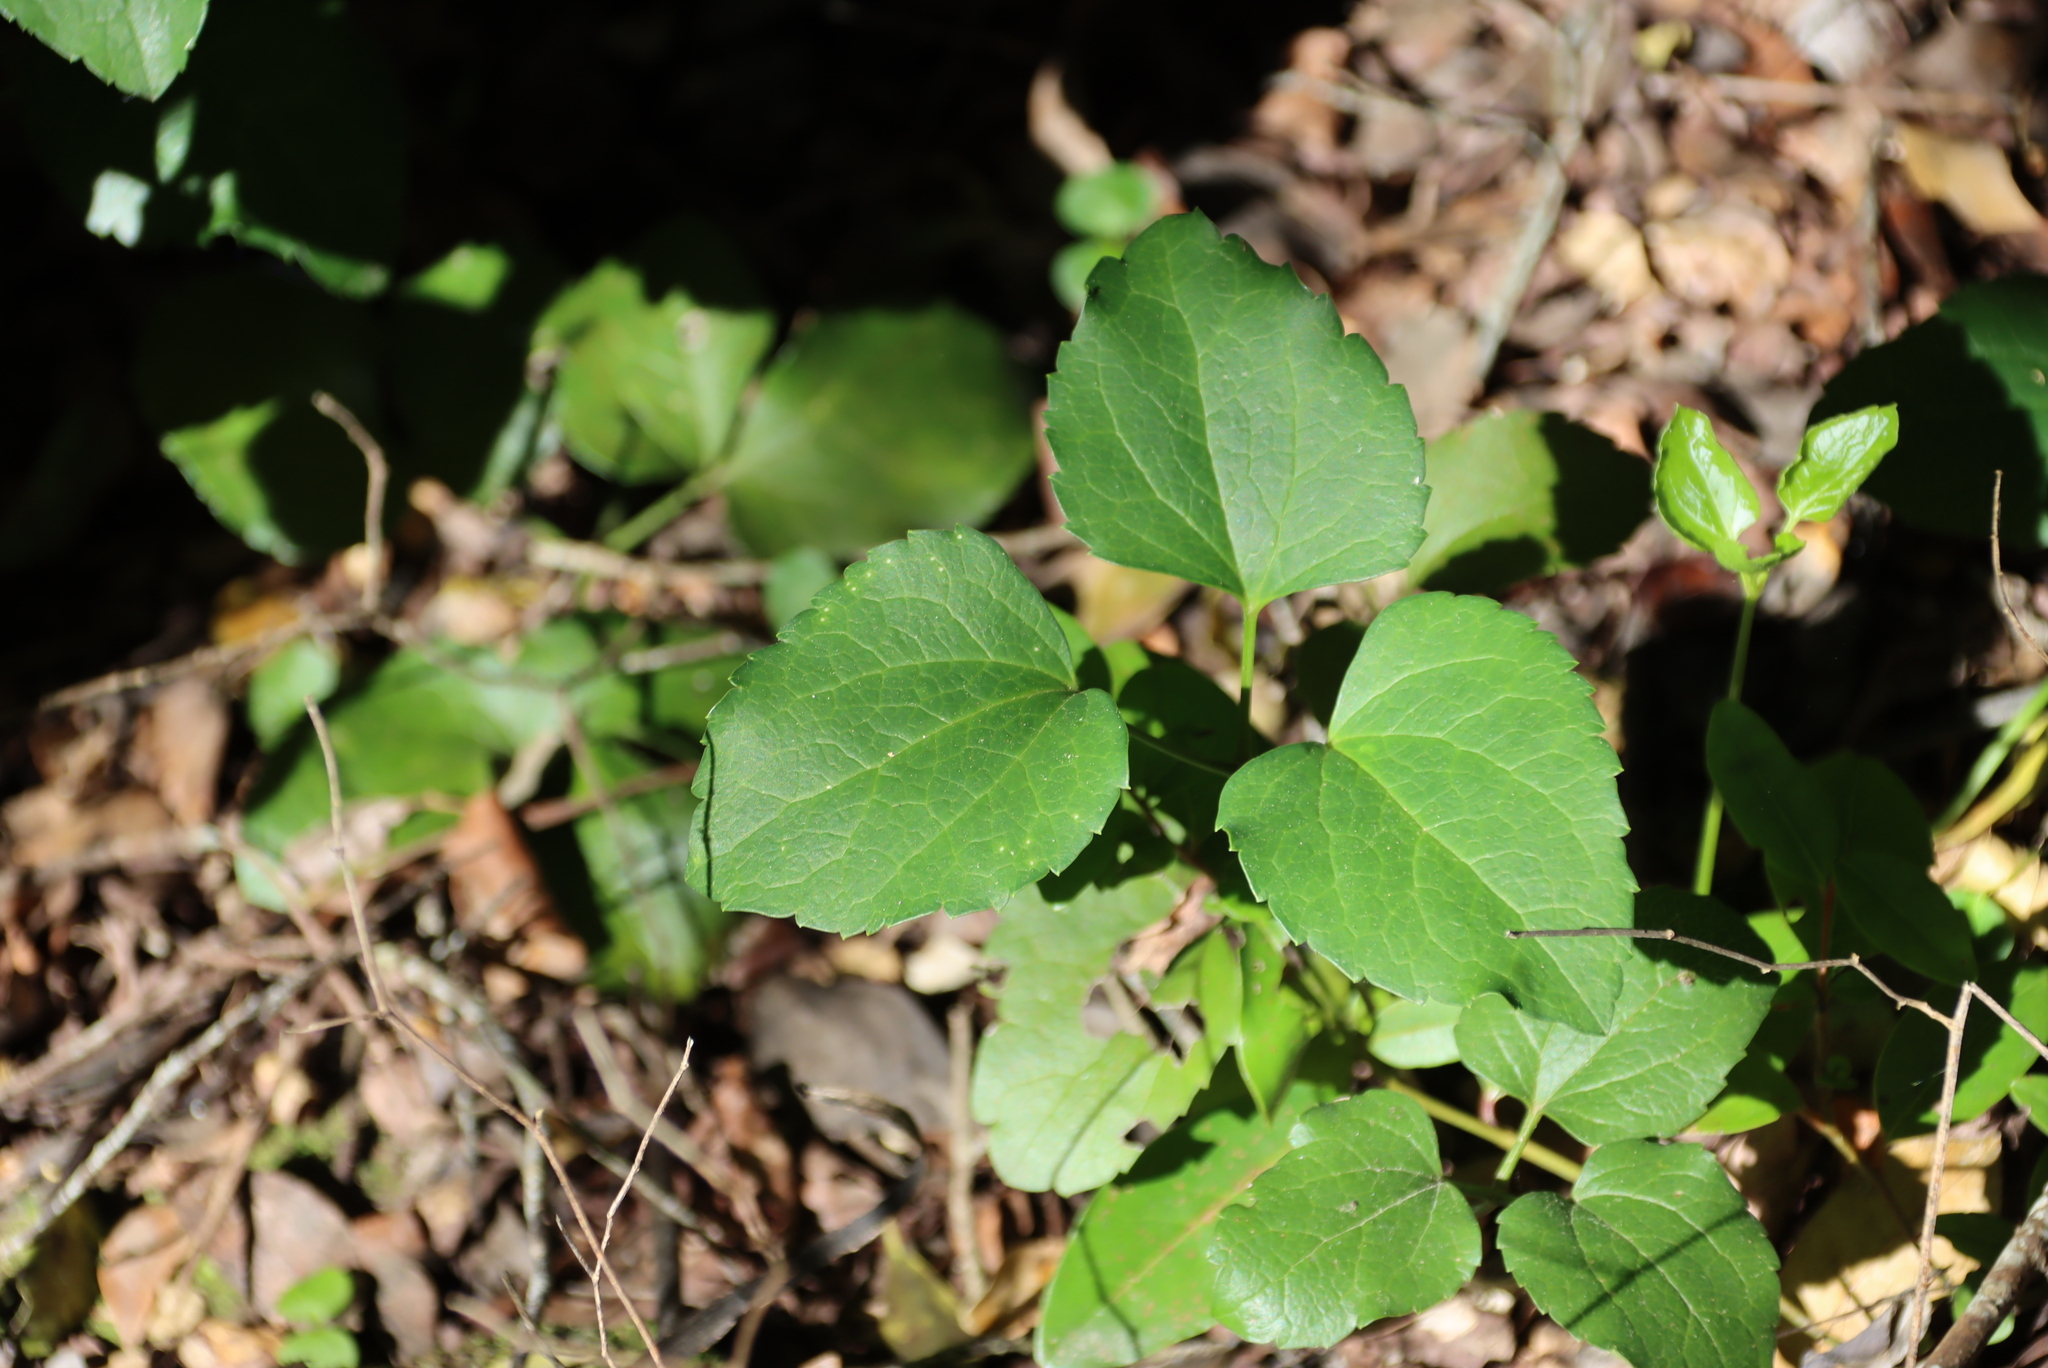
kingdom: Plantae
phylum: Tracheophyta
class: Magnoliopsida
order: Ranunculales
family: Ranunculaceae
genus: Knowltonia
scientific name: Knowltonia vesicatoria
